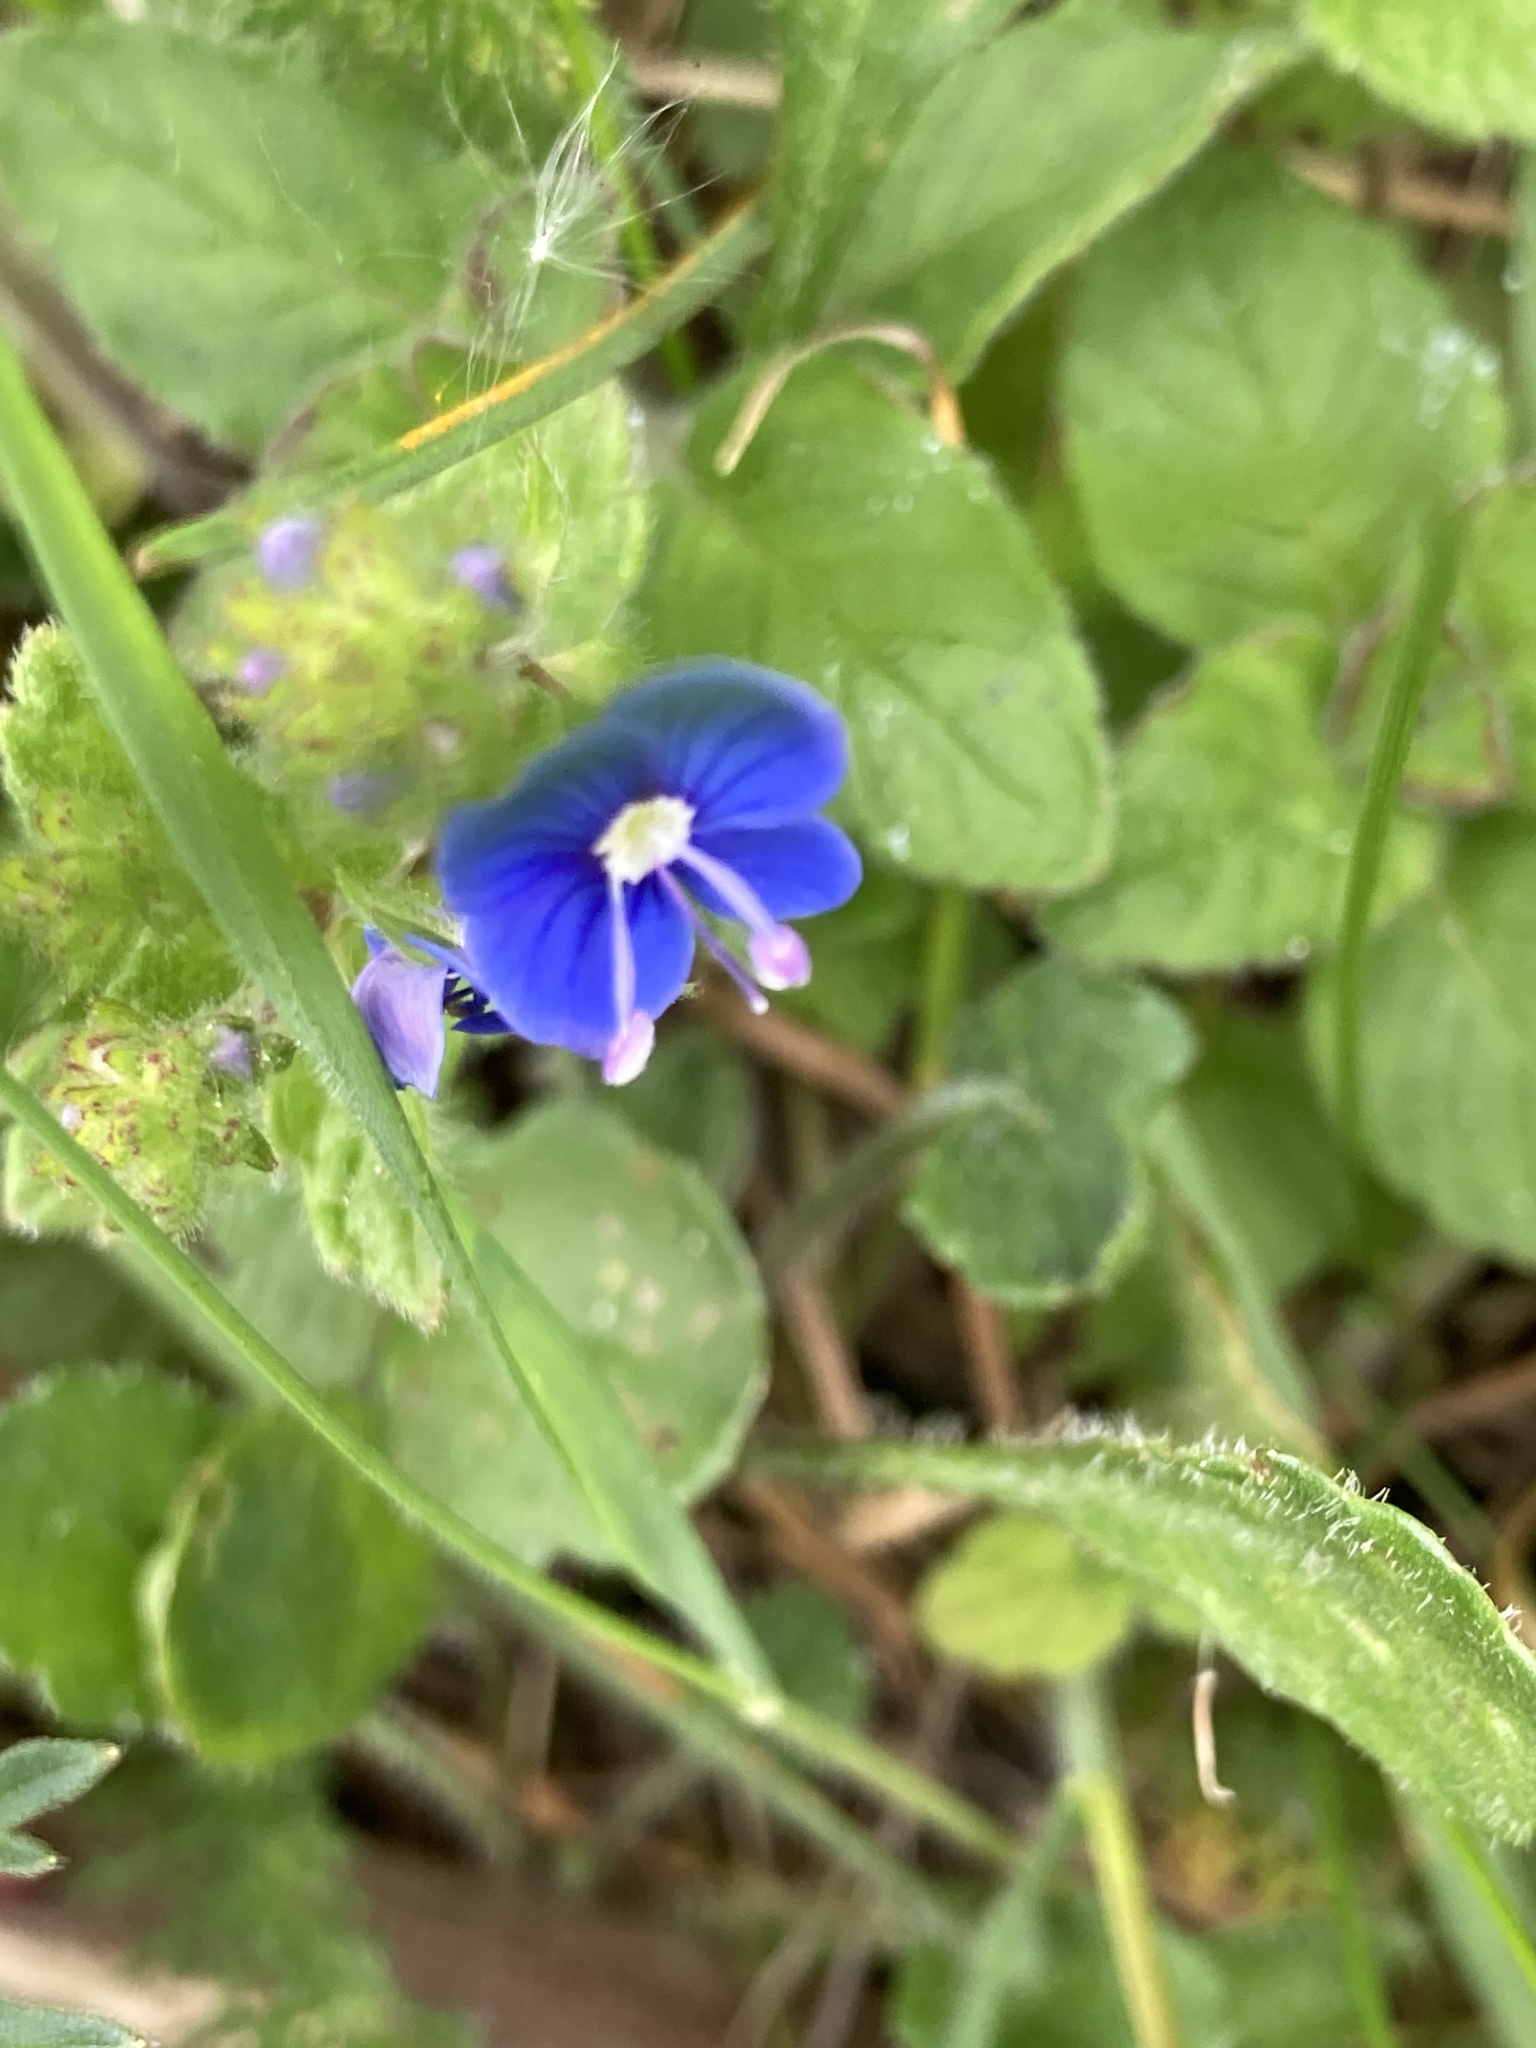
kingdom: Plantae
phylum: Tracheophyta
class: Magnoliopsida
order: Lamiales
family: Plantaginaceae
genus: Veronica
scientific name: Veronica chamaedrys
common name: Germander speedwell
